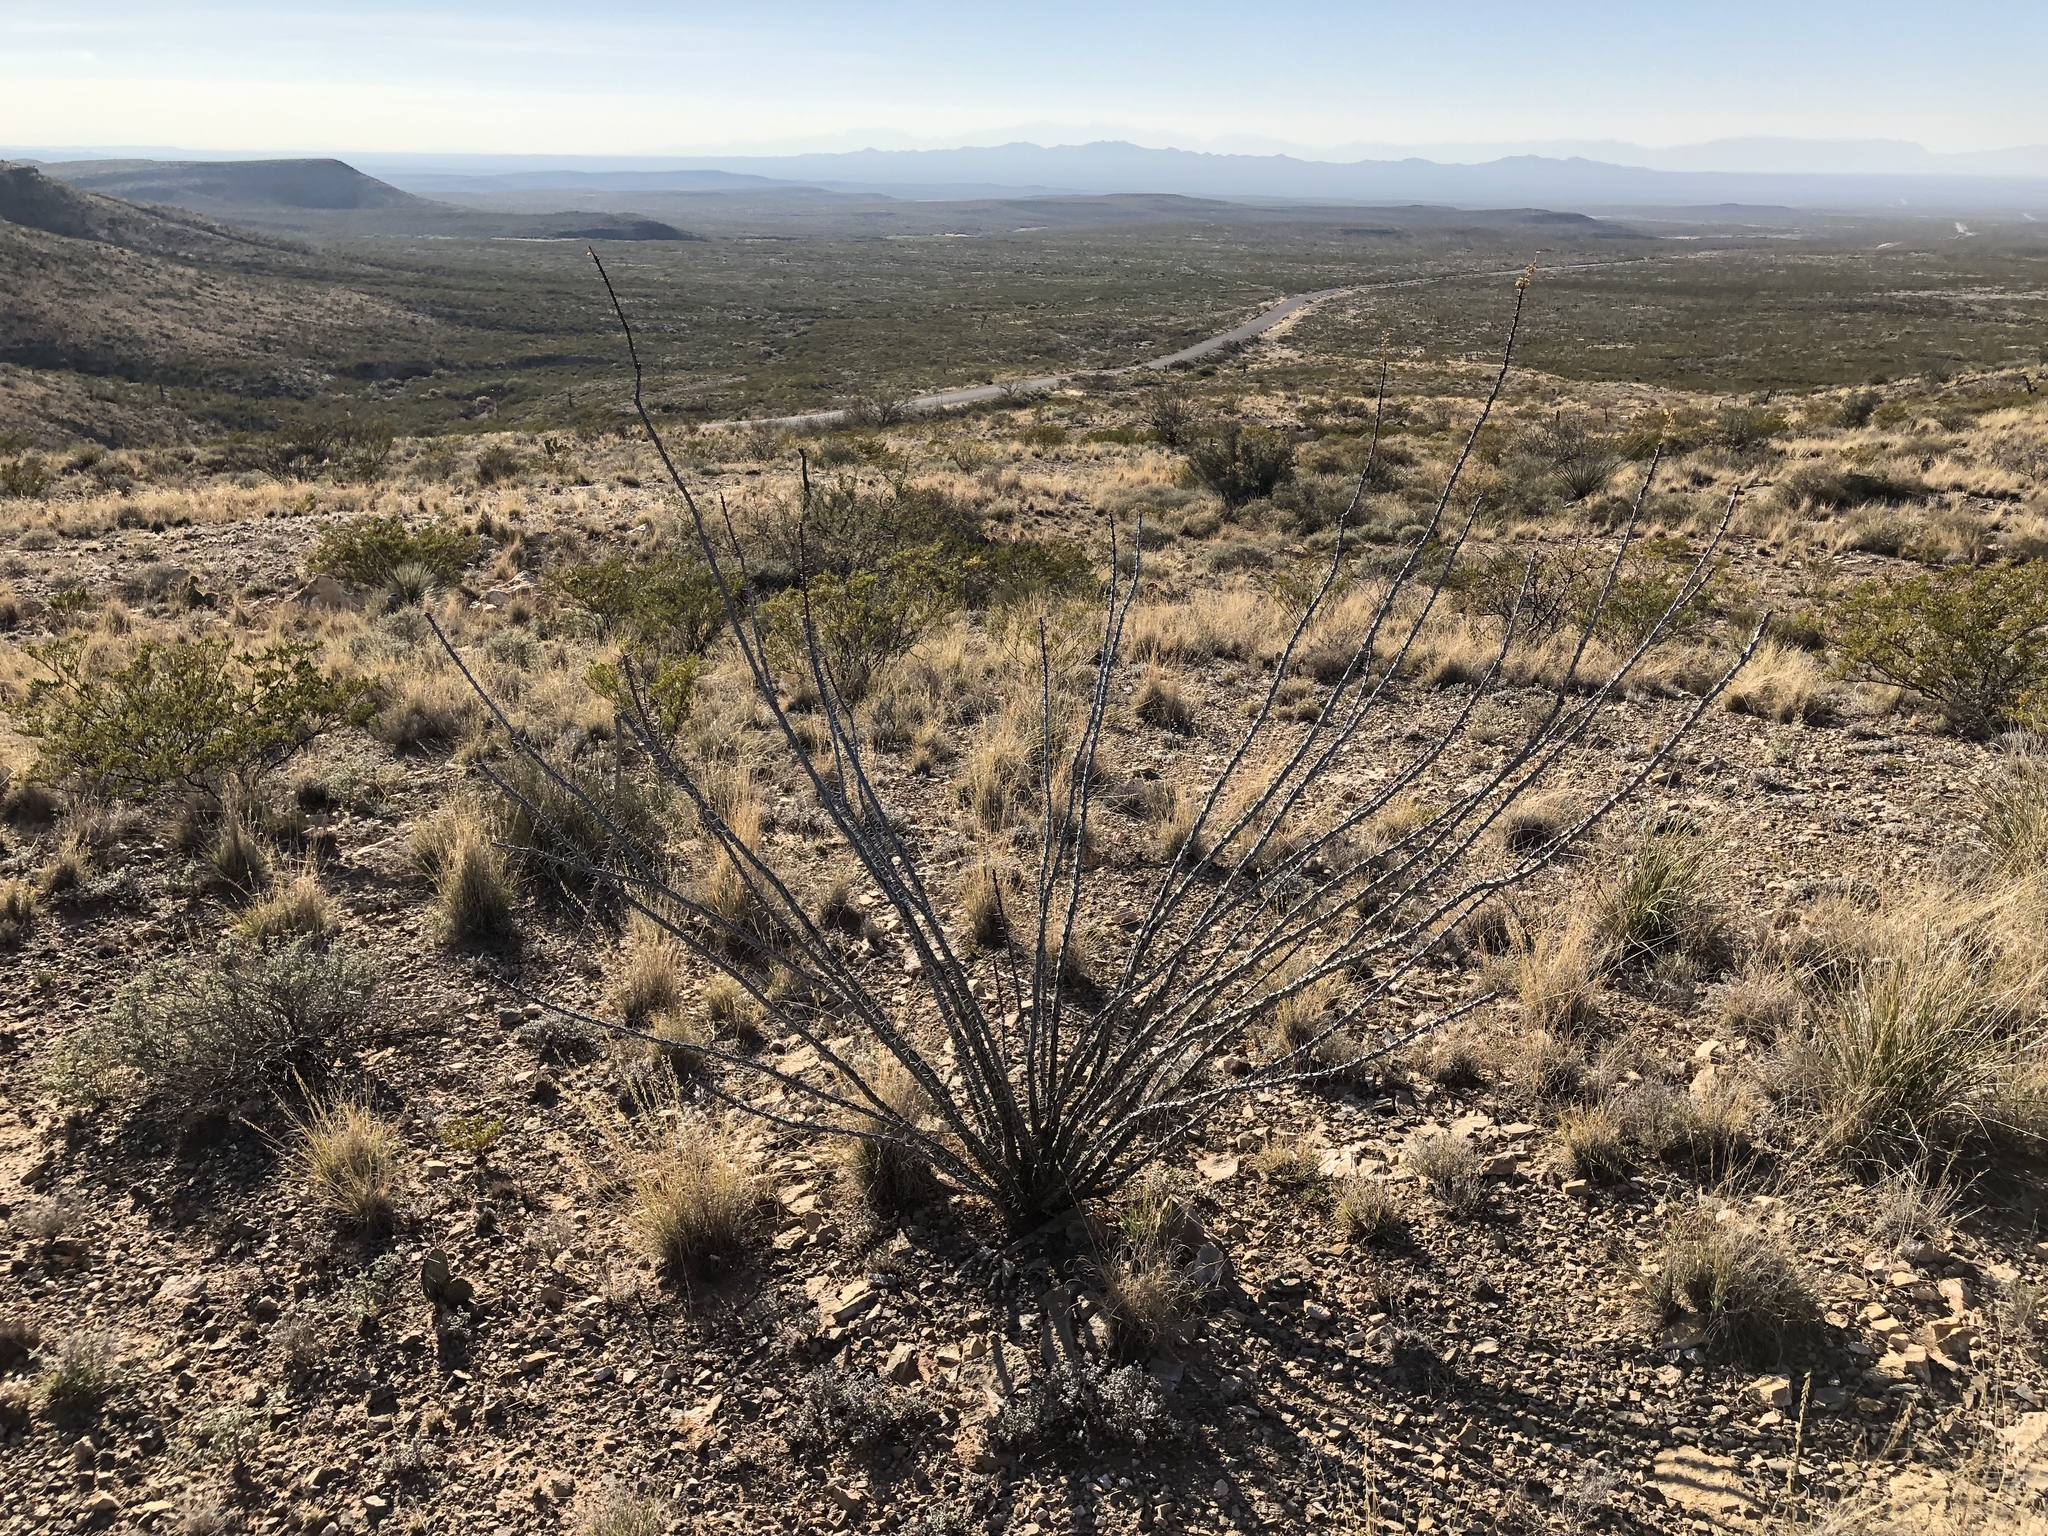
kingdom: Plantae
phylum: Tracheophyta
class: Magnoliopsida
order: Ericales
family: Fouquieriaceae
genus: Fouquieria
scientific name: Fouquieria splendens
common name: Vine-cactus
